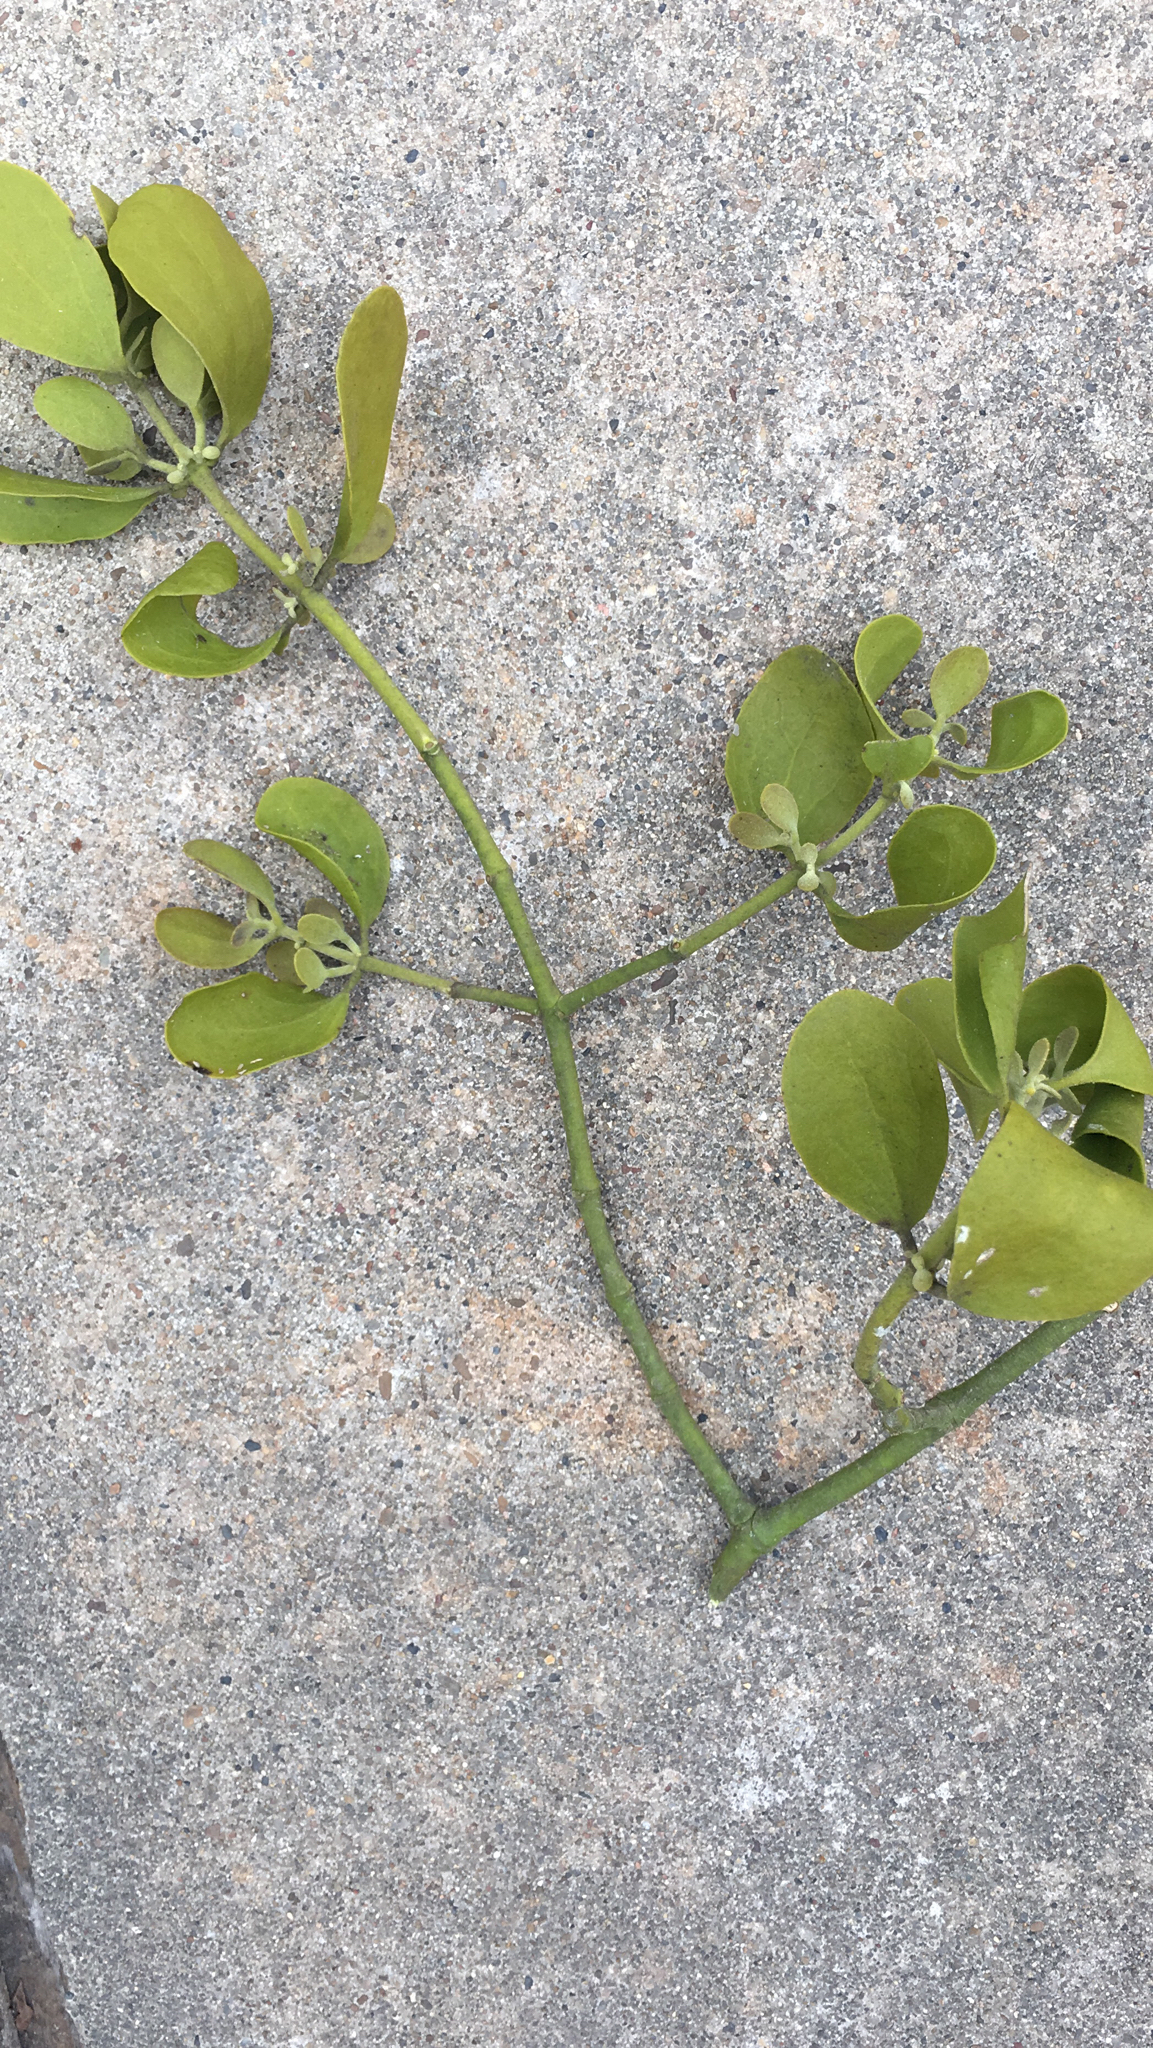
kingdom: Plantae
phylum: Tracheophyta
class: Magnoliopsida
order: Santalales
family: Viscaceae
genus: Phoradendron
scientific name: Phoradendron leucarpum
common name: Pacific mistletoe
